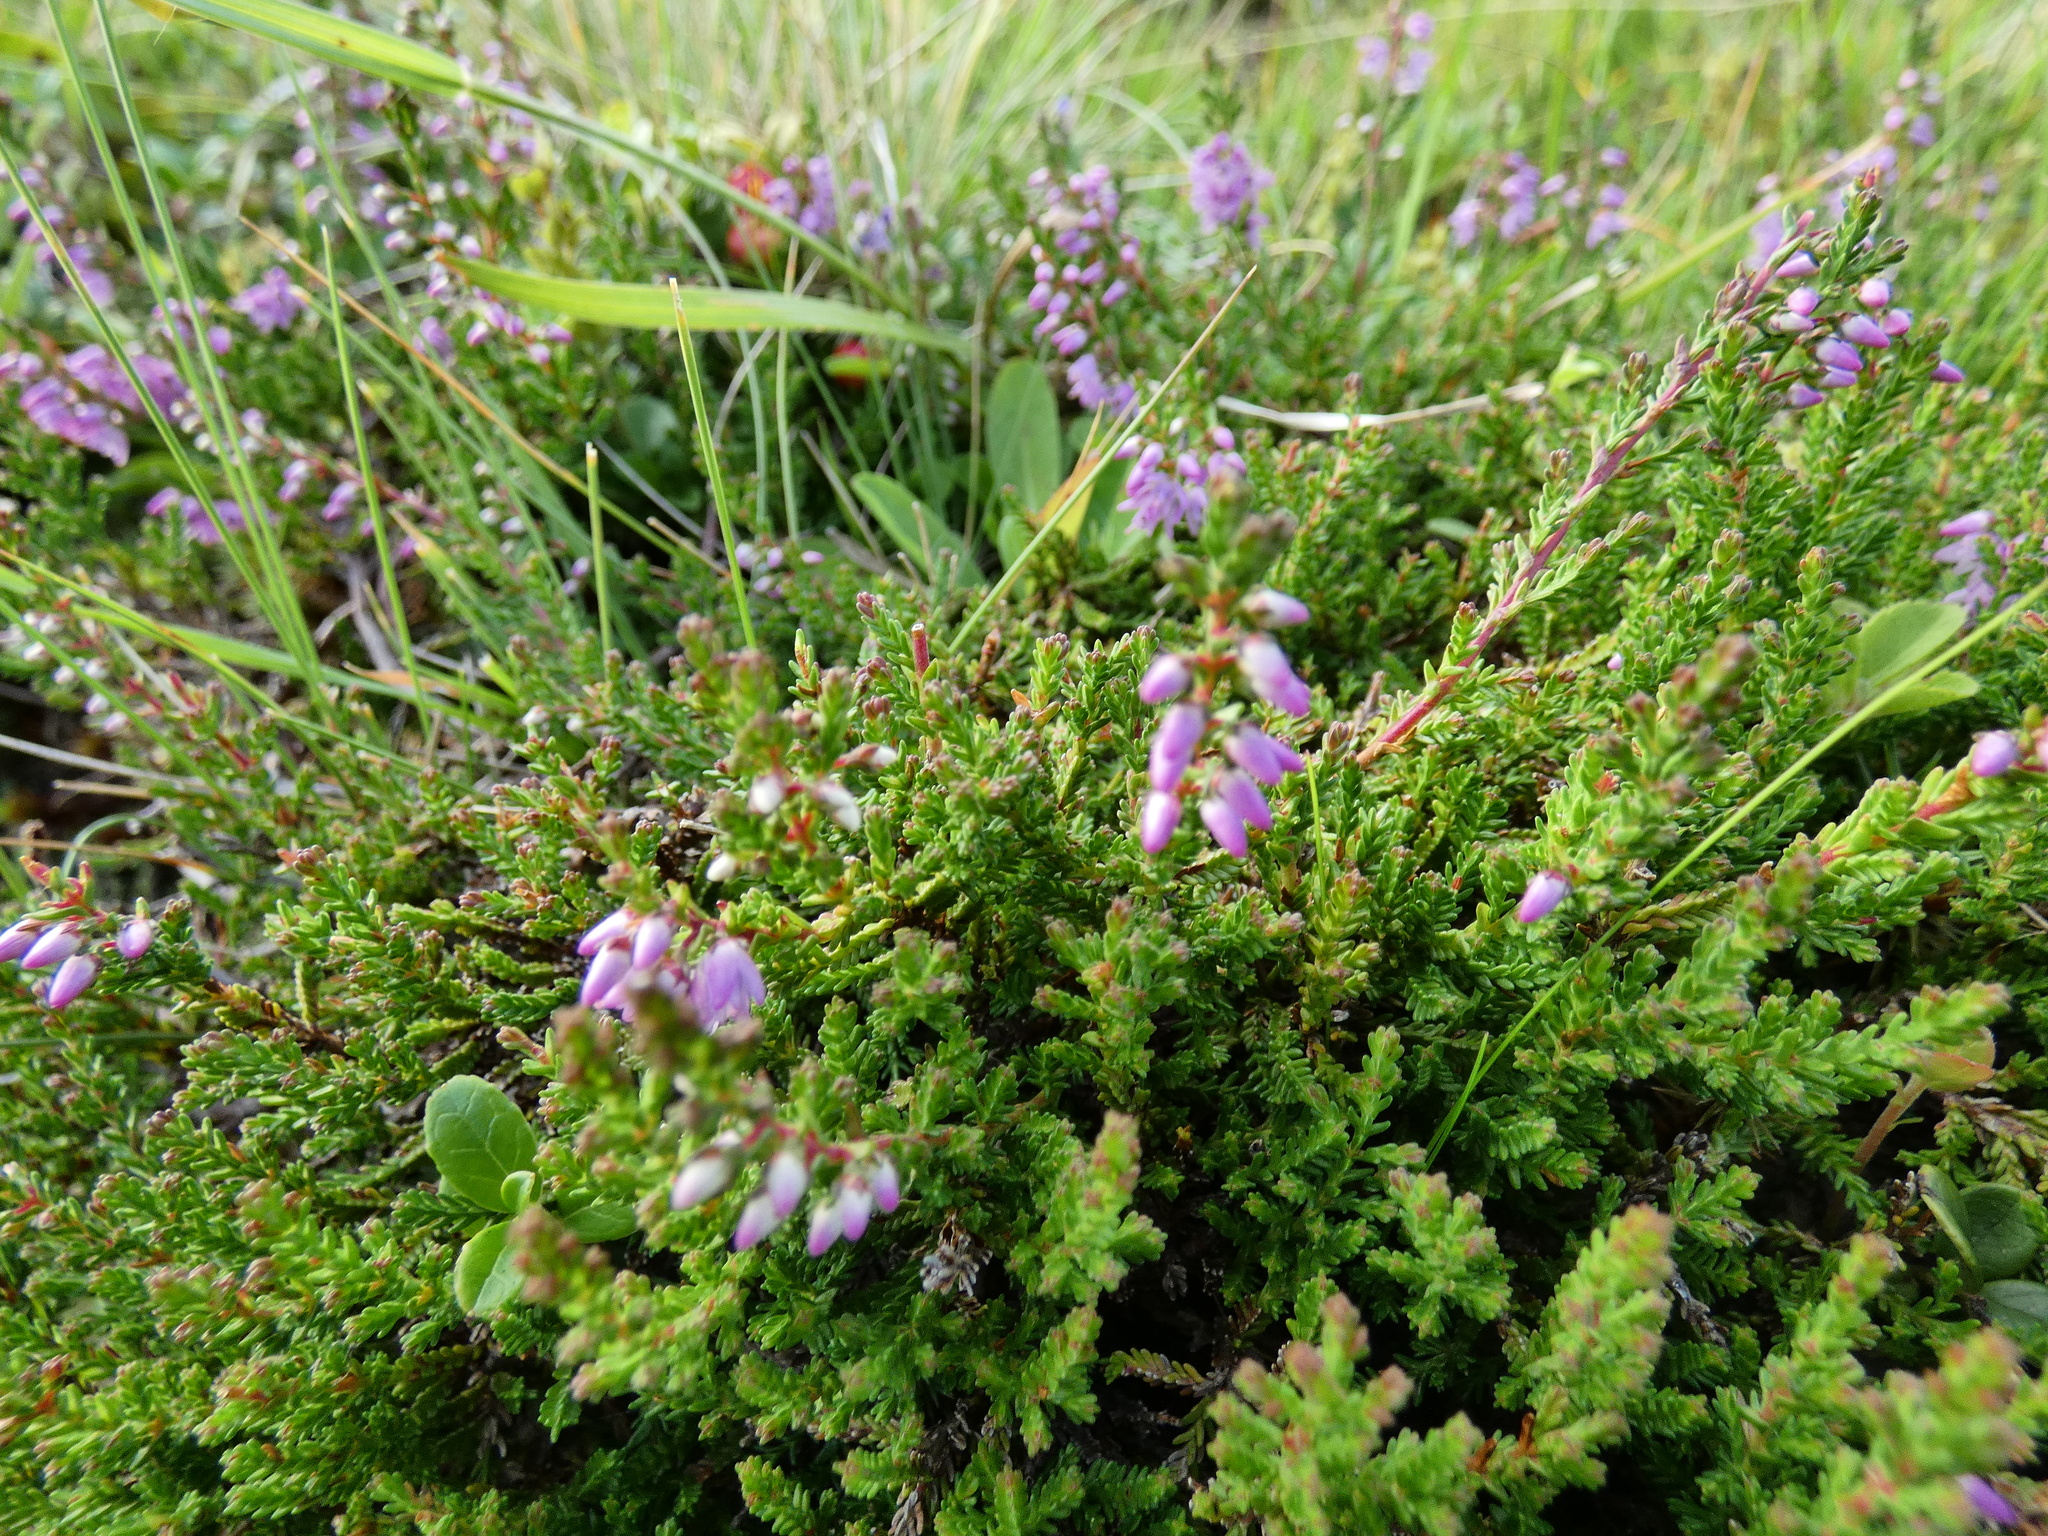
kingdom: Plantae
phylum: Tracheophyta
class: Magnoliopsida
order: Ericales
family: Ericaceae
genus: Calluna
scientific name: Calluna vulgaris
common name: Heather
